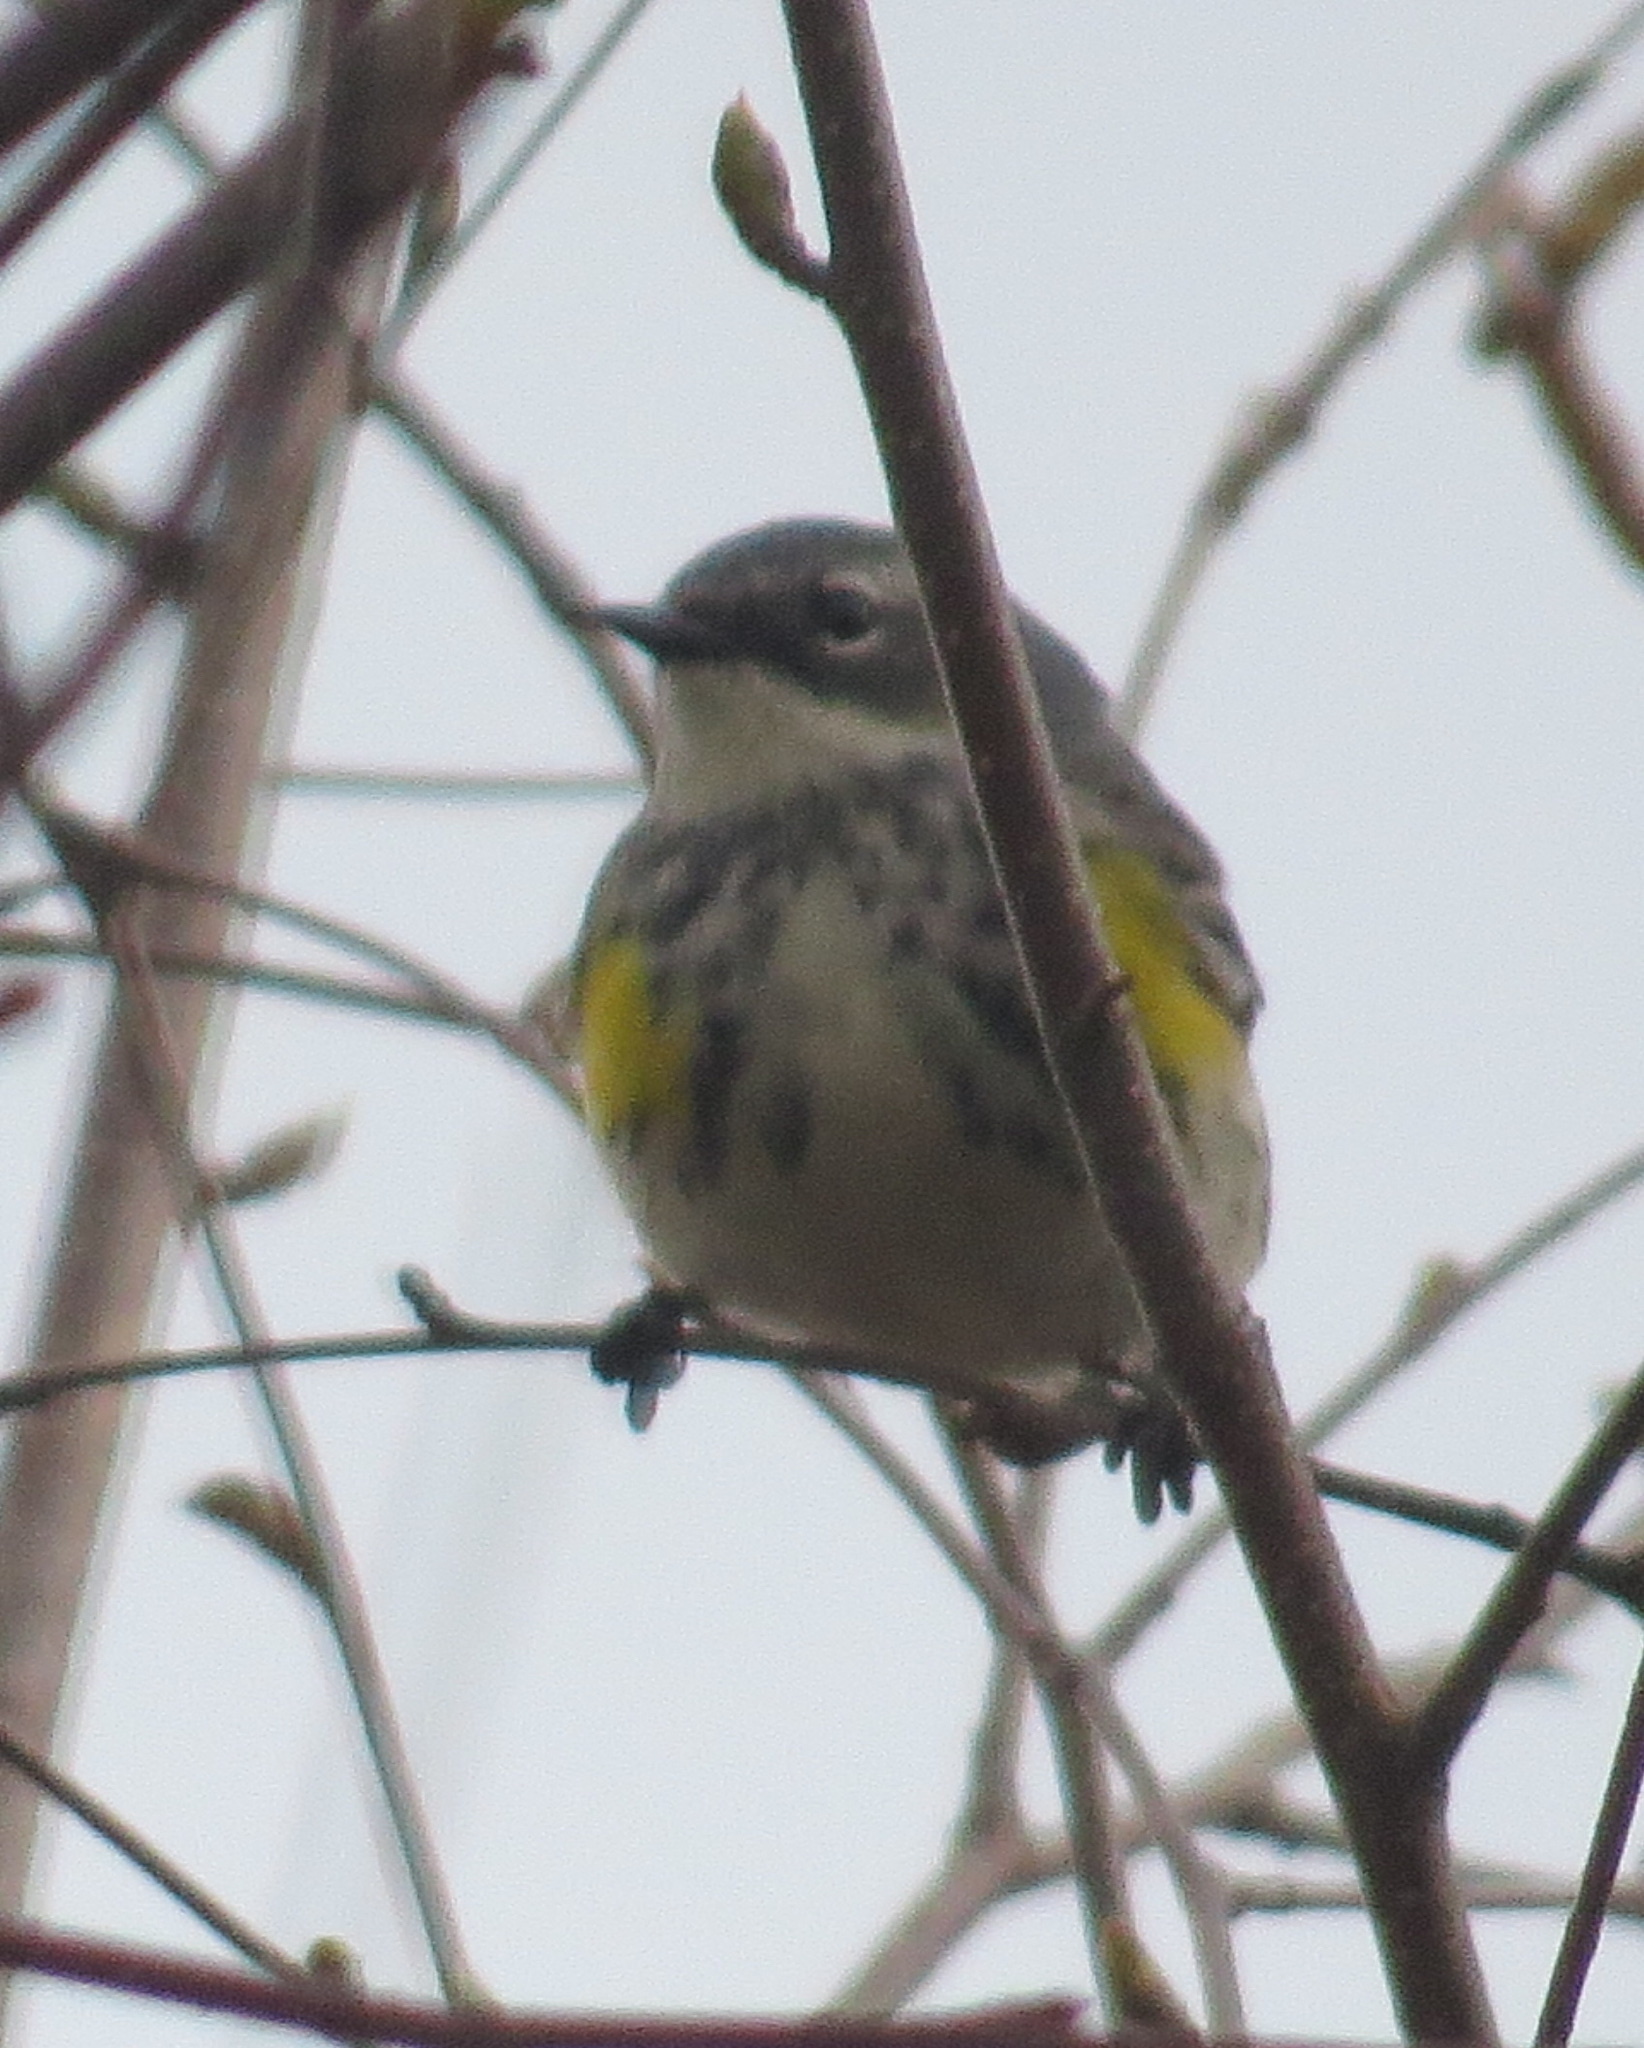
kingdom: Animalia
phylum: Chordata
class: Aves
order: Passeriformes
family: Parulidae
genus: Setophaga
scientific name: Setophaga coronata
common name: Myrtle warbler
